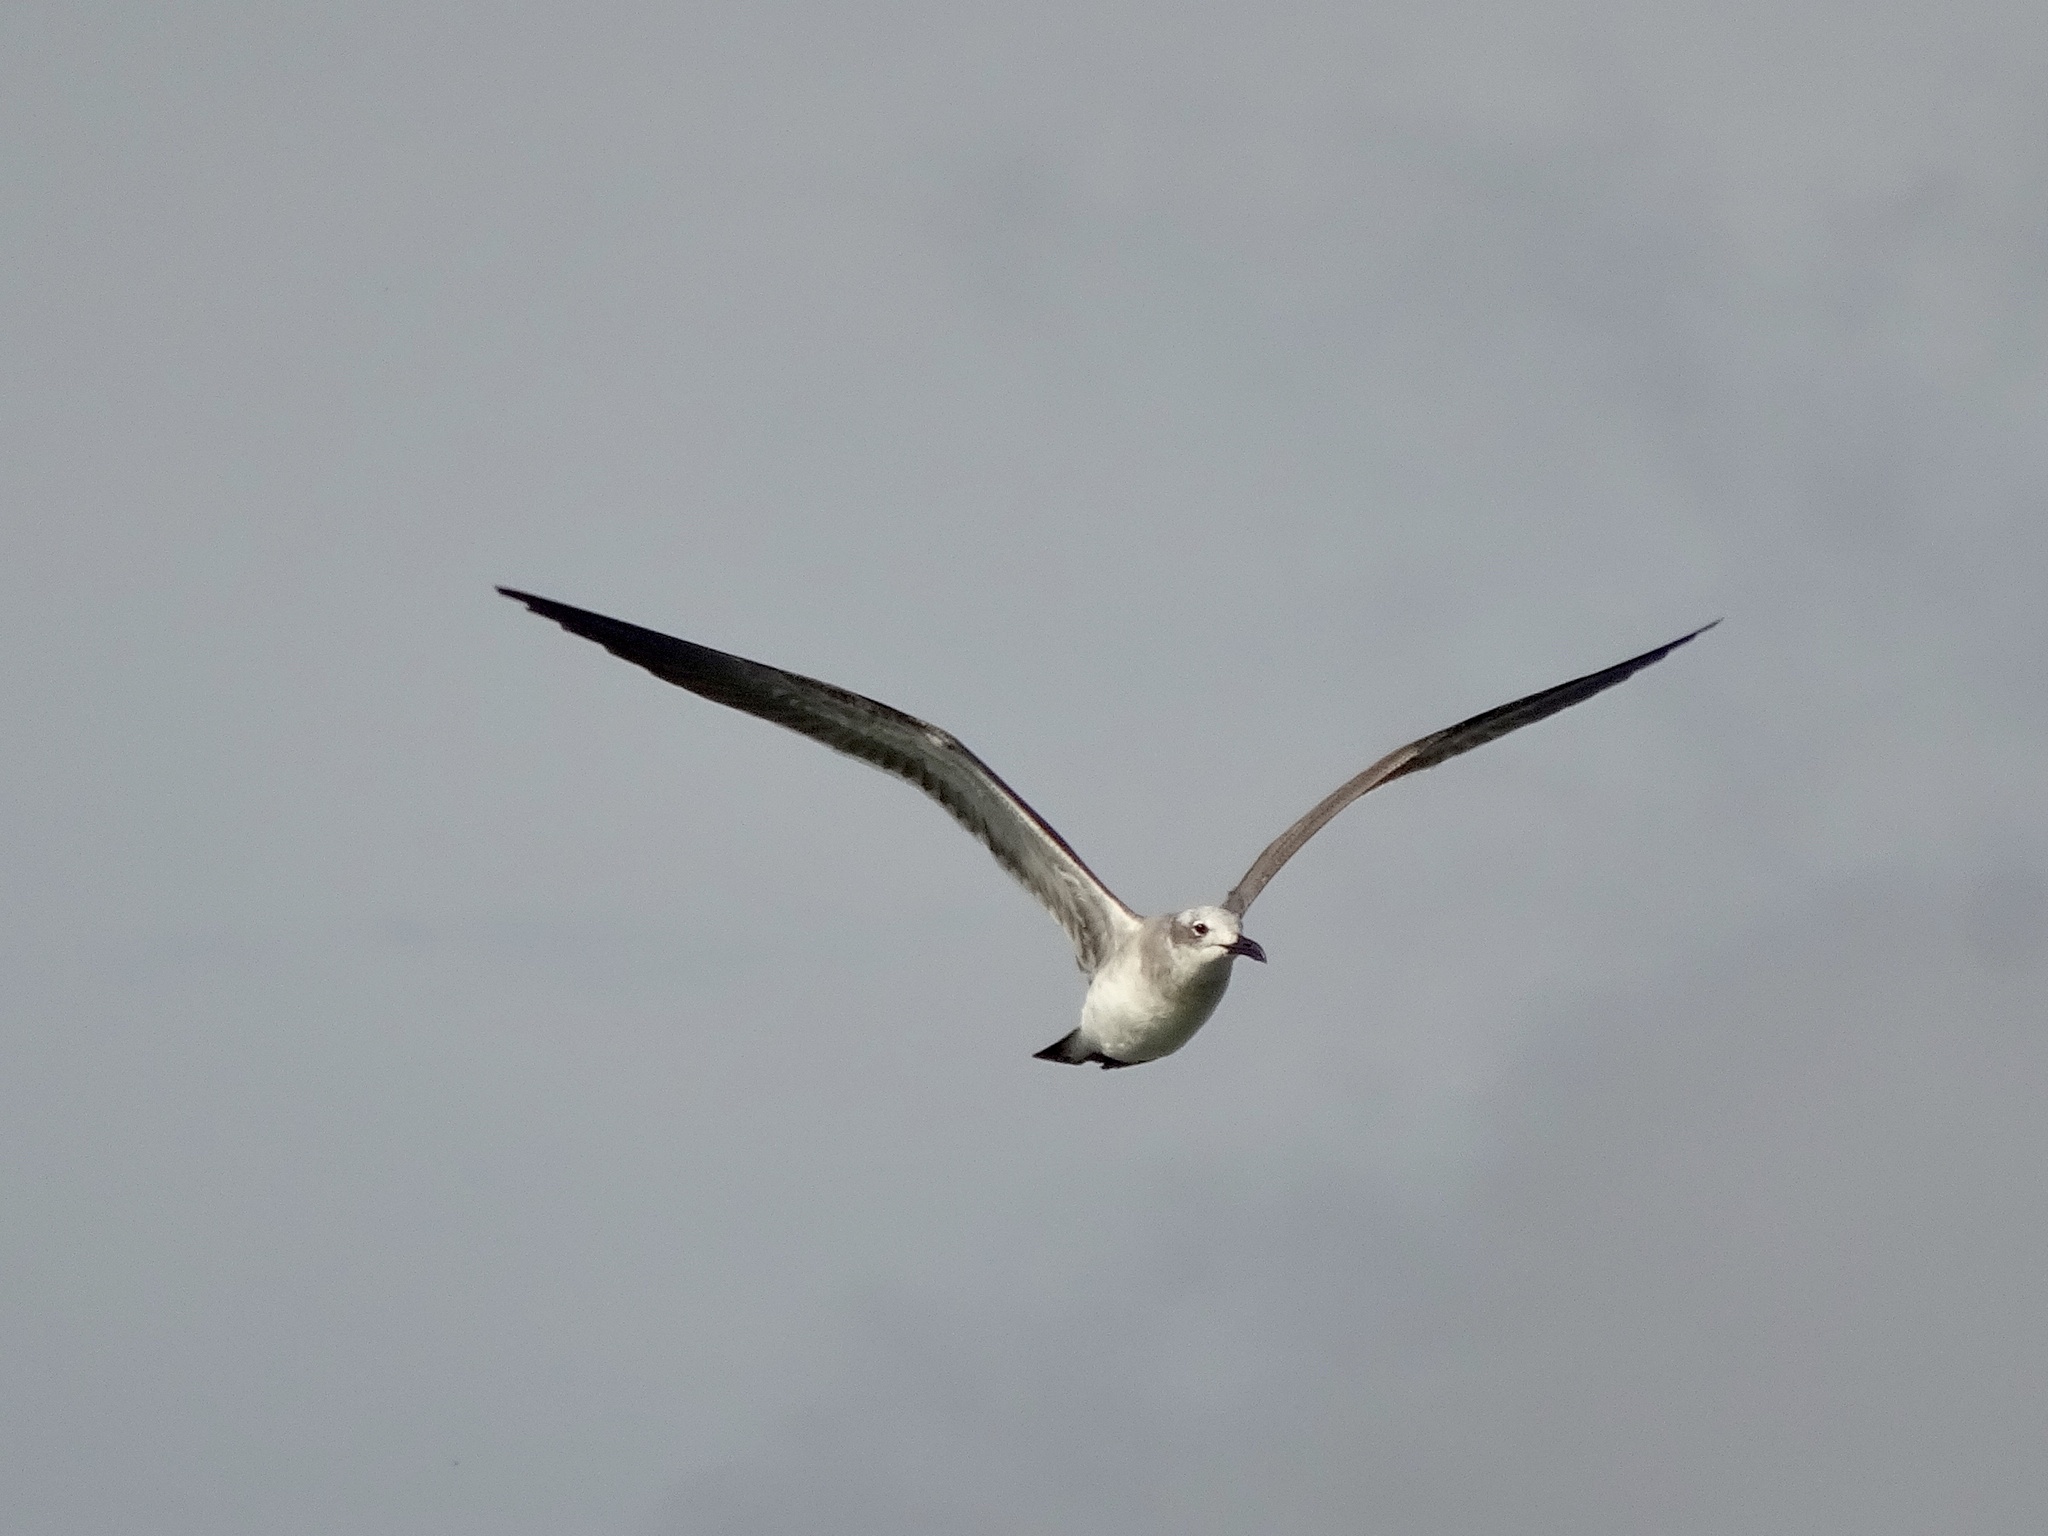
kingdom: Animalia
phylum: Chordata
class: Aves
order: Charadriiformes
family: Laridae
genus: Leucophaeus
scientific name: Leucophaeus atricilla
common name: Laughing gull
